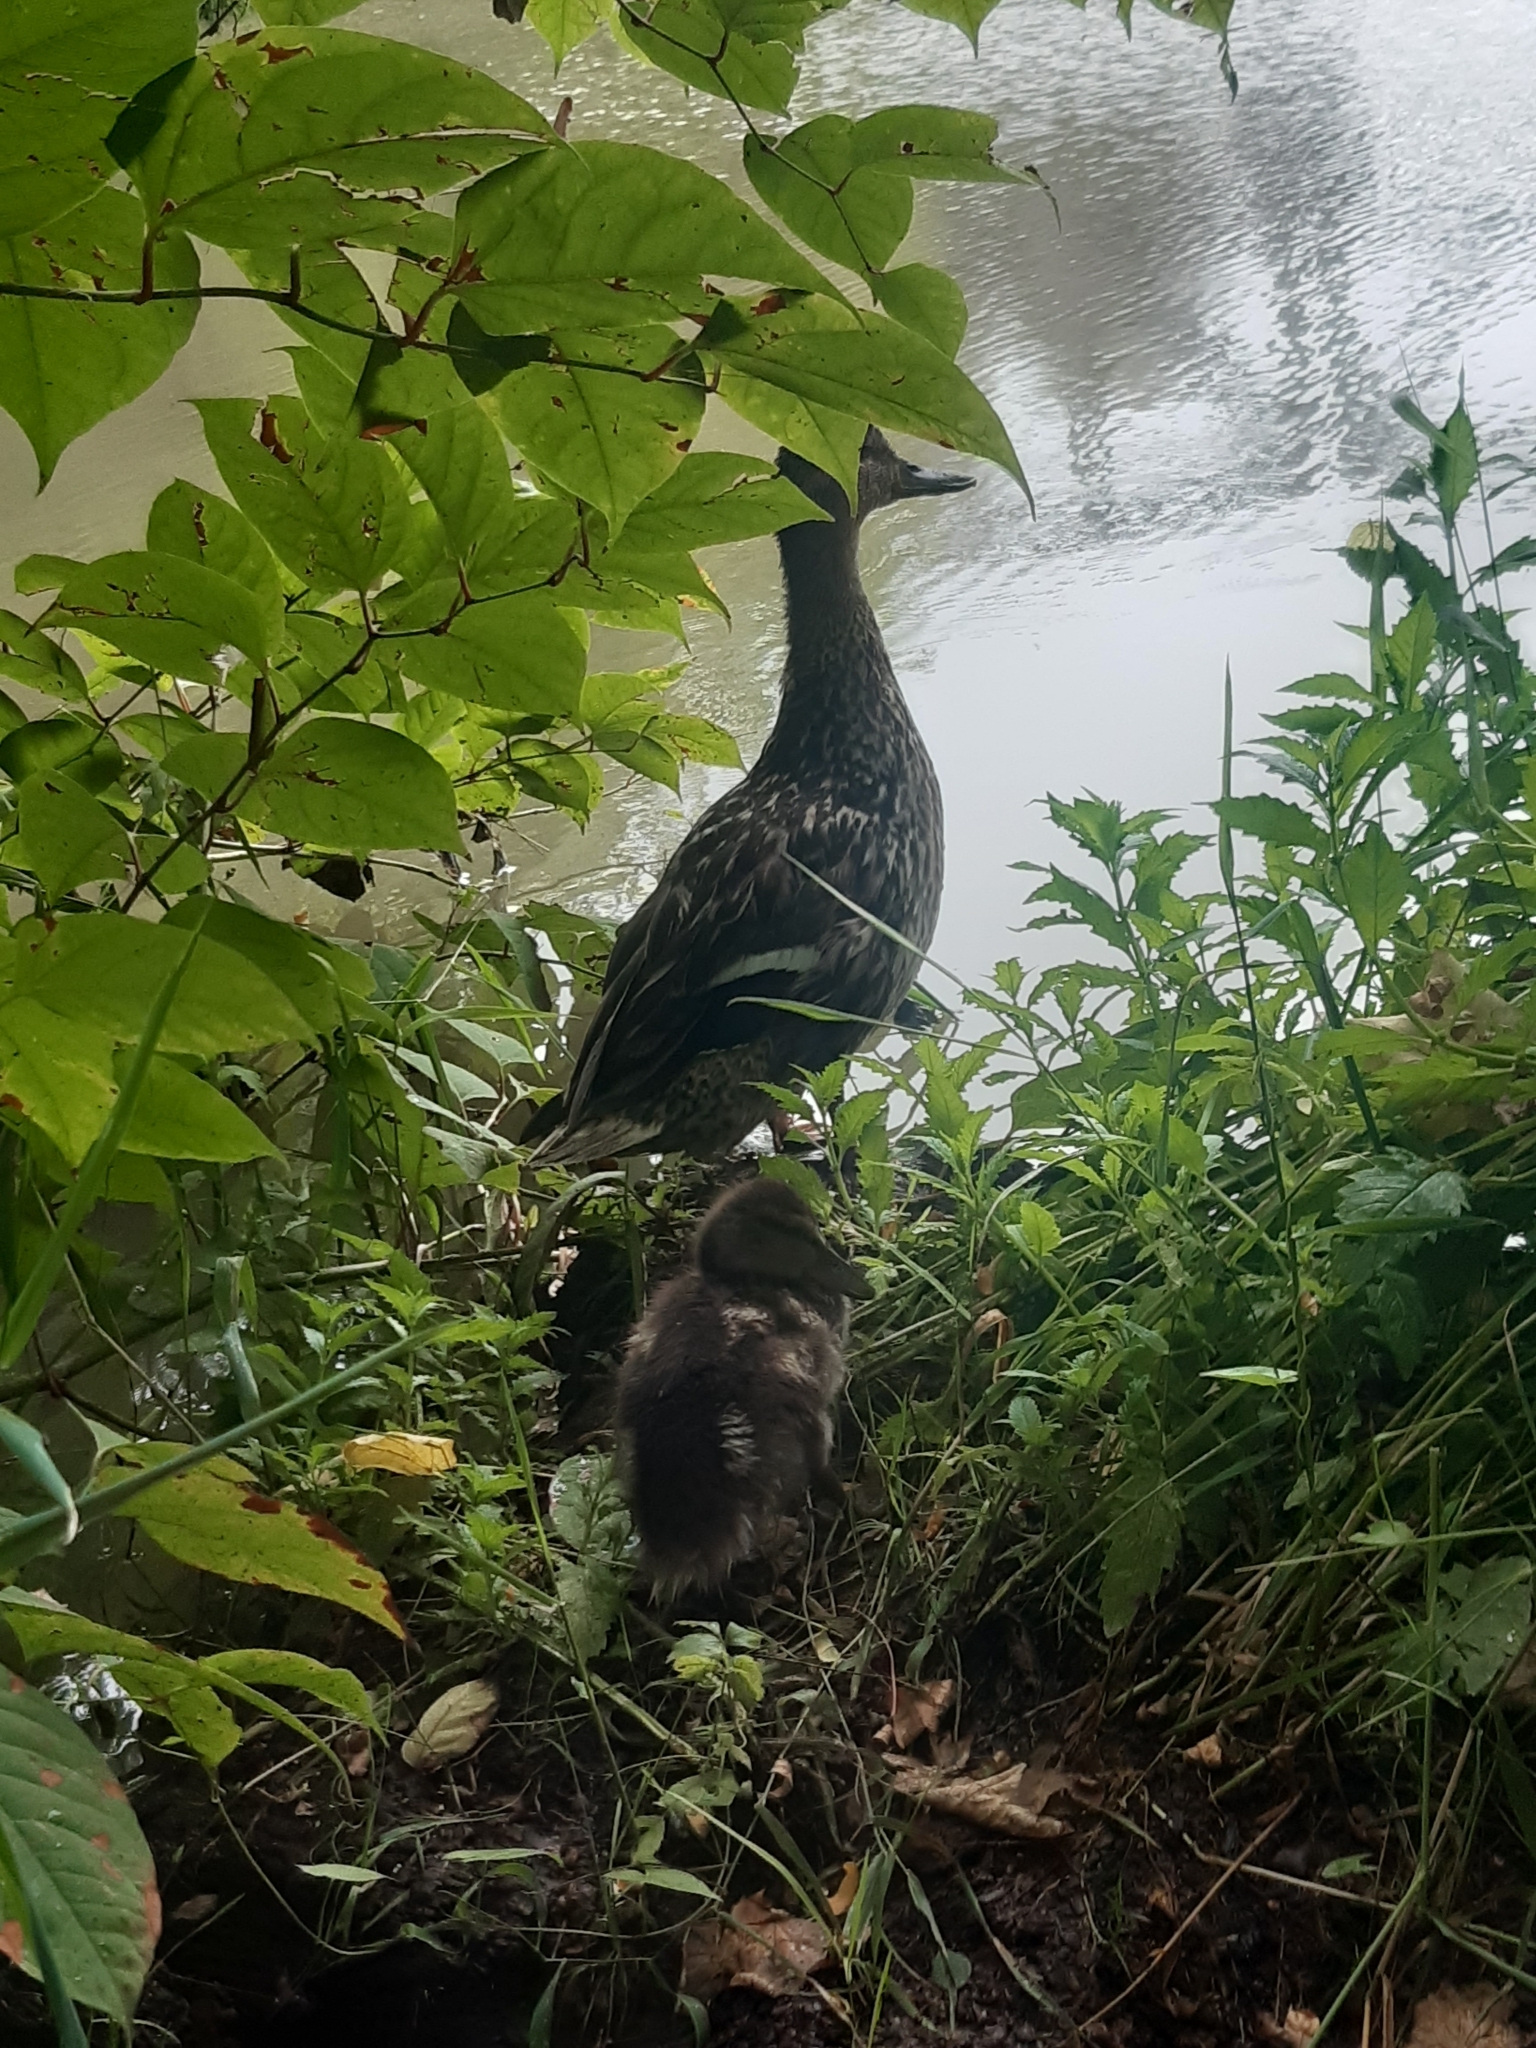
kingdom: Animalia
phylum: Chordata
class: Aves
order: Anseriformes
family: Anatidae
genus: Anas
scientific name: Anas platyrhynchos
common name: Mallard
